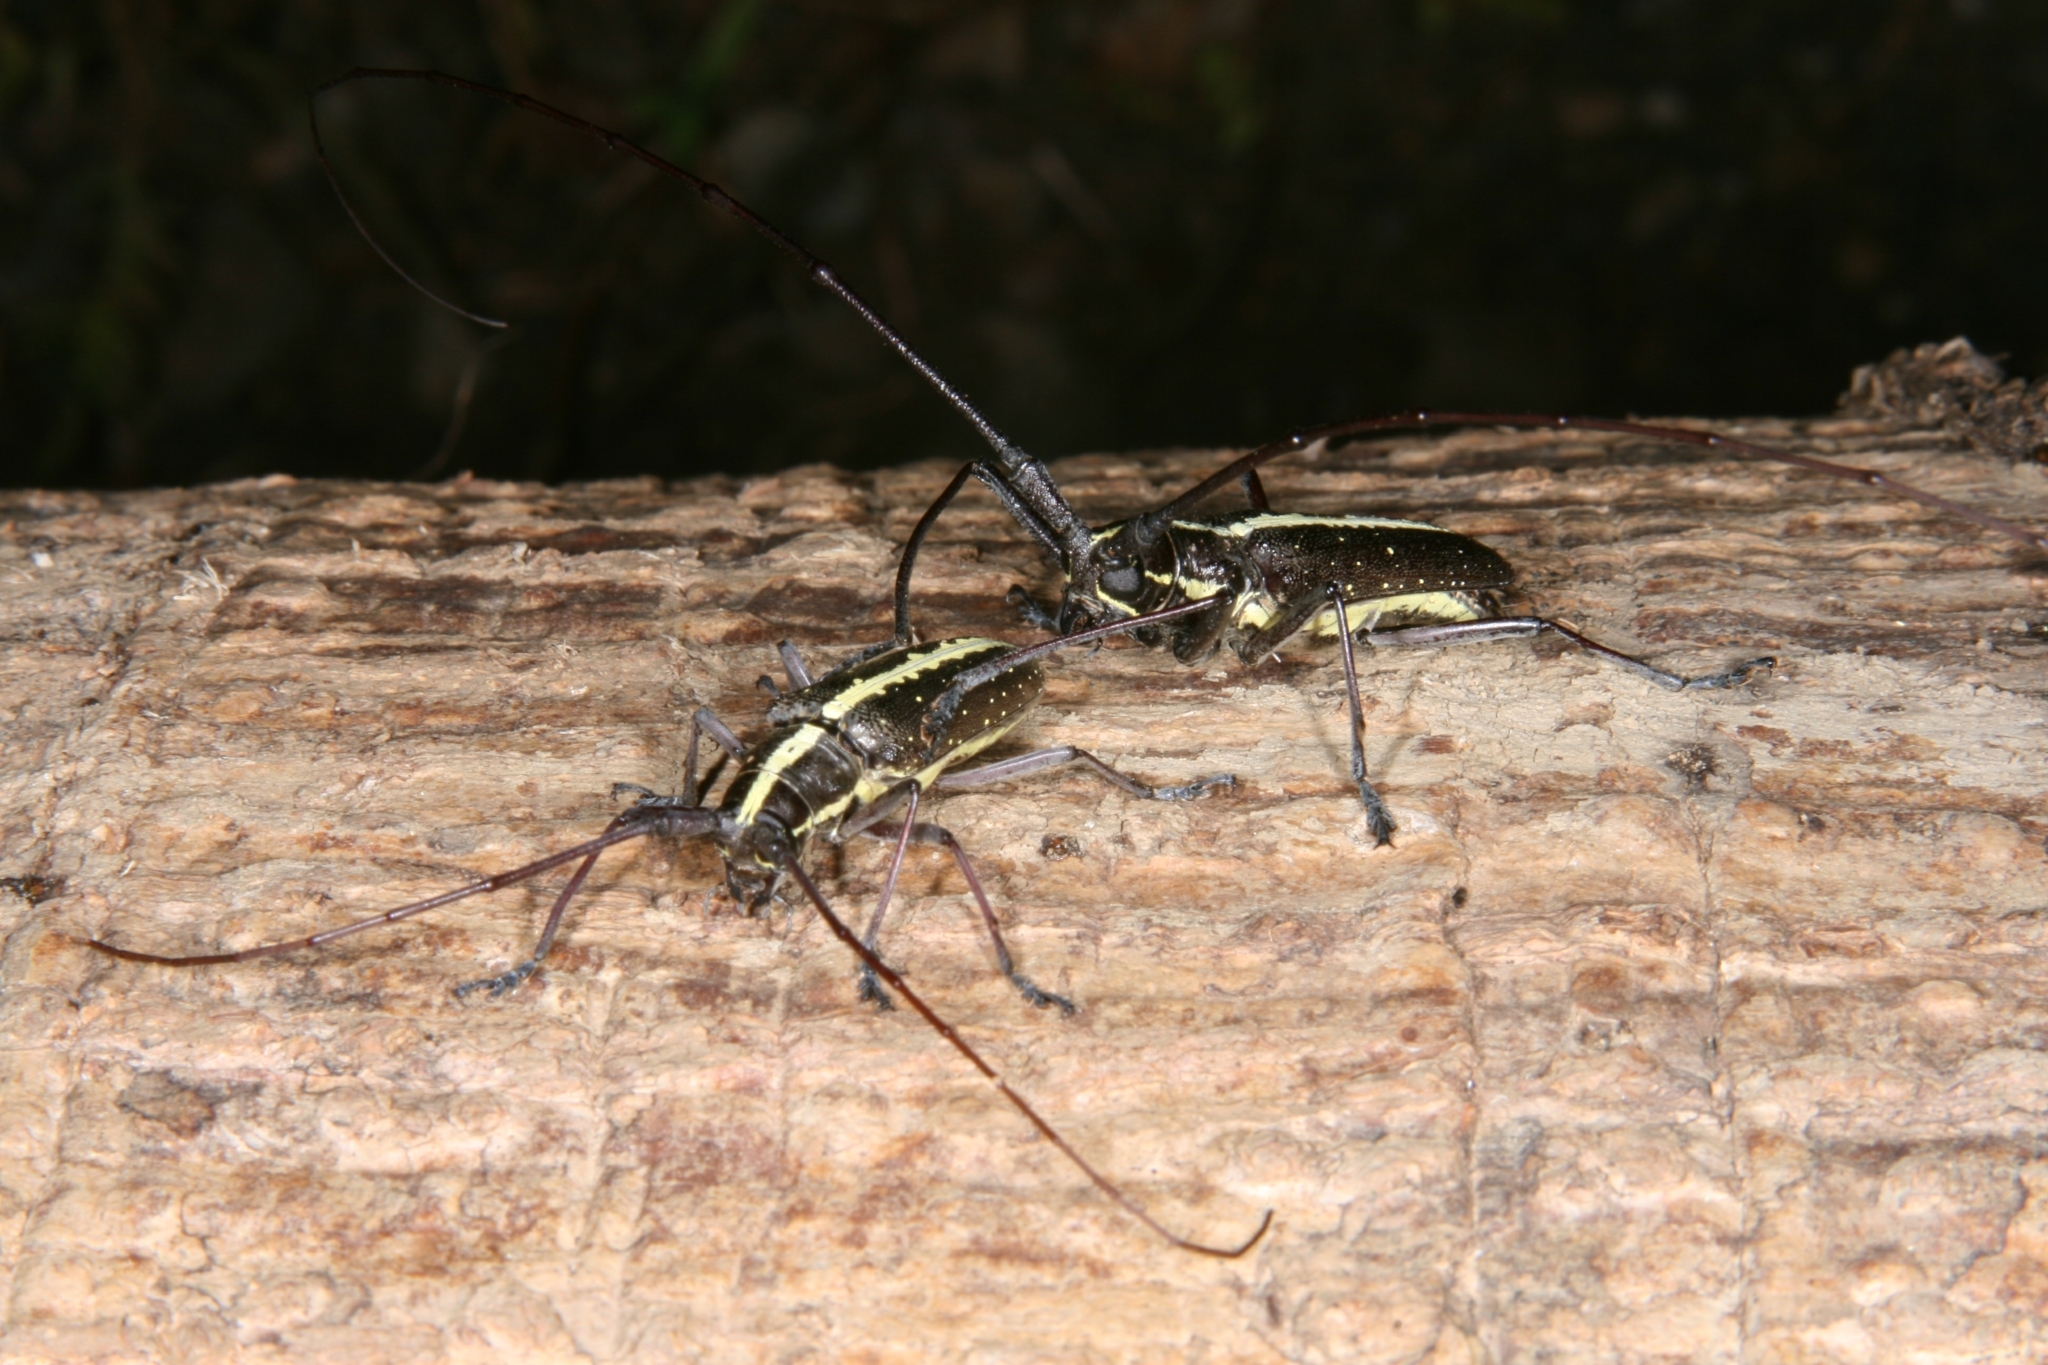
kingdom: Animalia
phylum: Arthropoda
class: Insecta
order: Coleoptera
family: Cerambycidae
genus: Taeniotes
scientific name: Taeniotes scalatus
